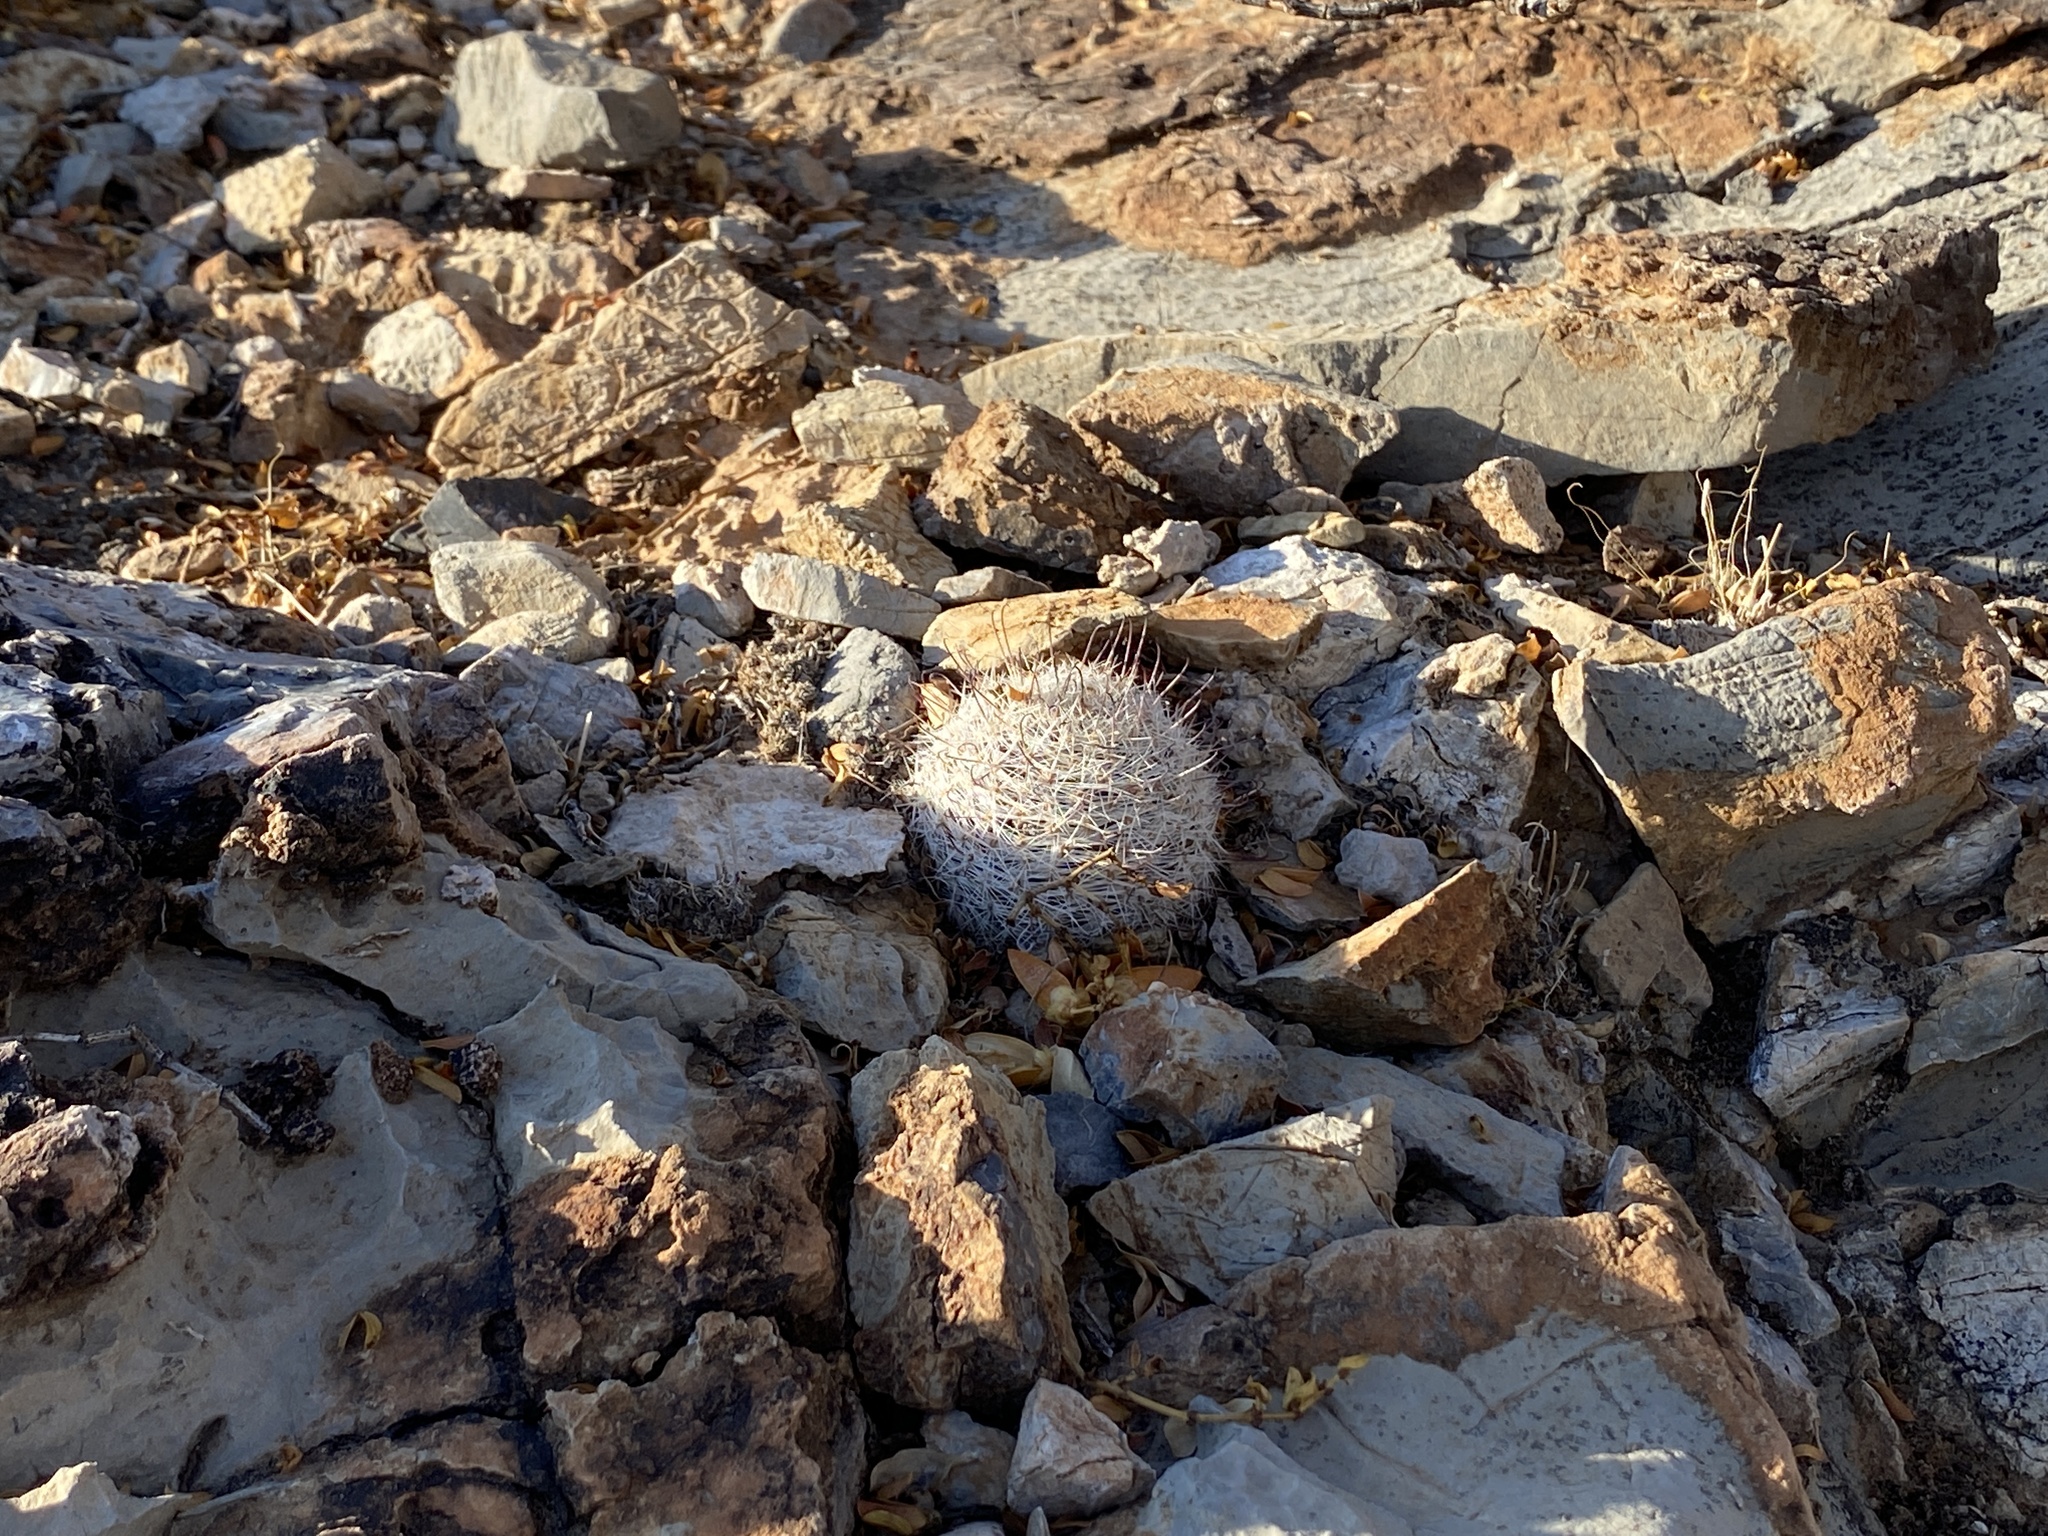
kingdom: Plantae
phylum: Tracheophyta
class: Magnoliopsida
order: Caryophyllales
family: Cactaceae
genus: Cochemiea
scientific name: Cochemiea grahamii
